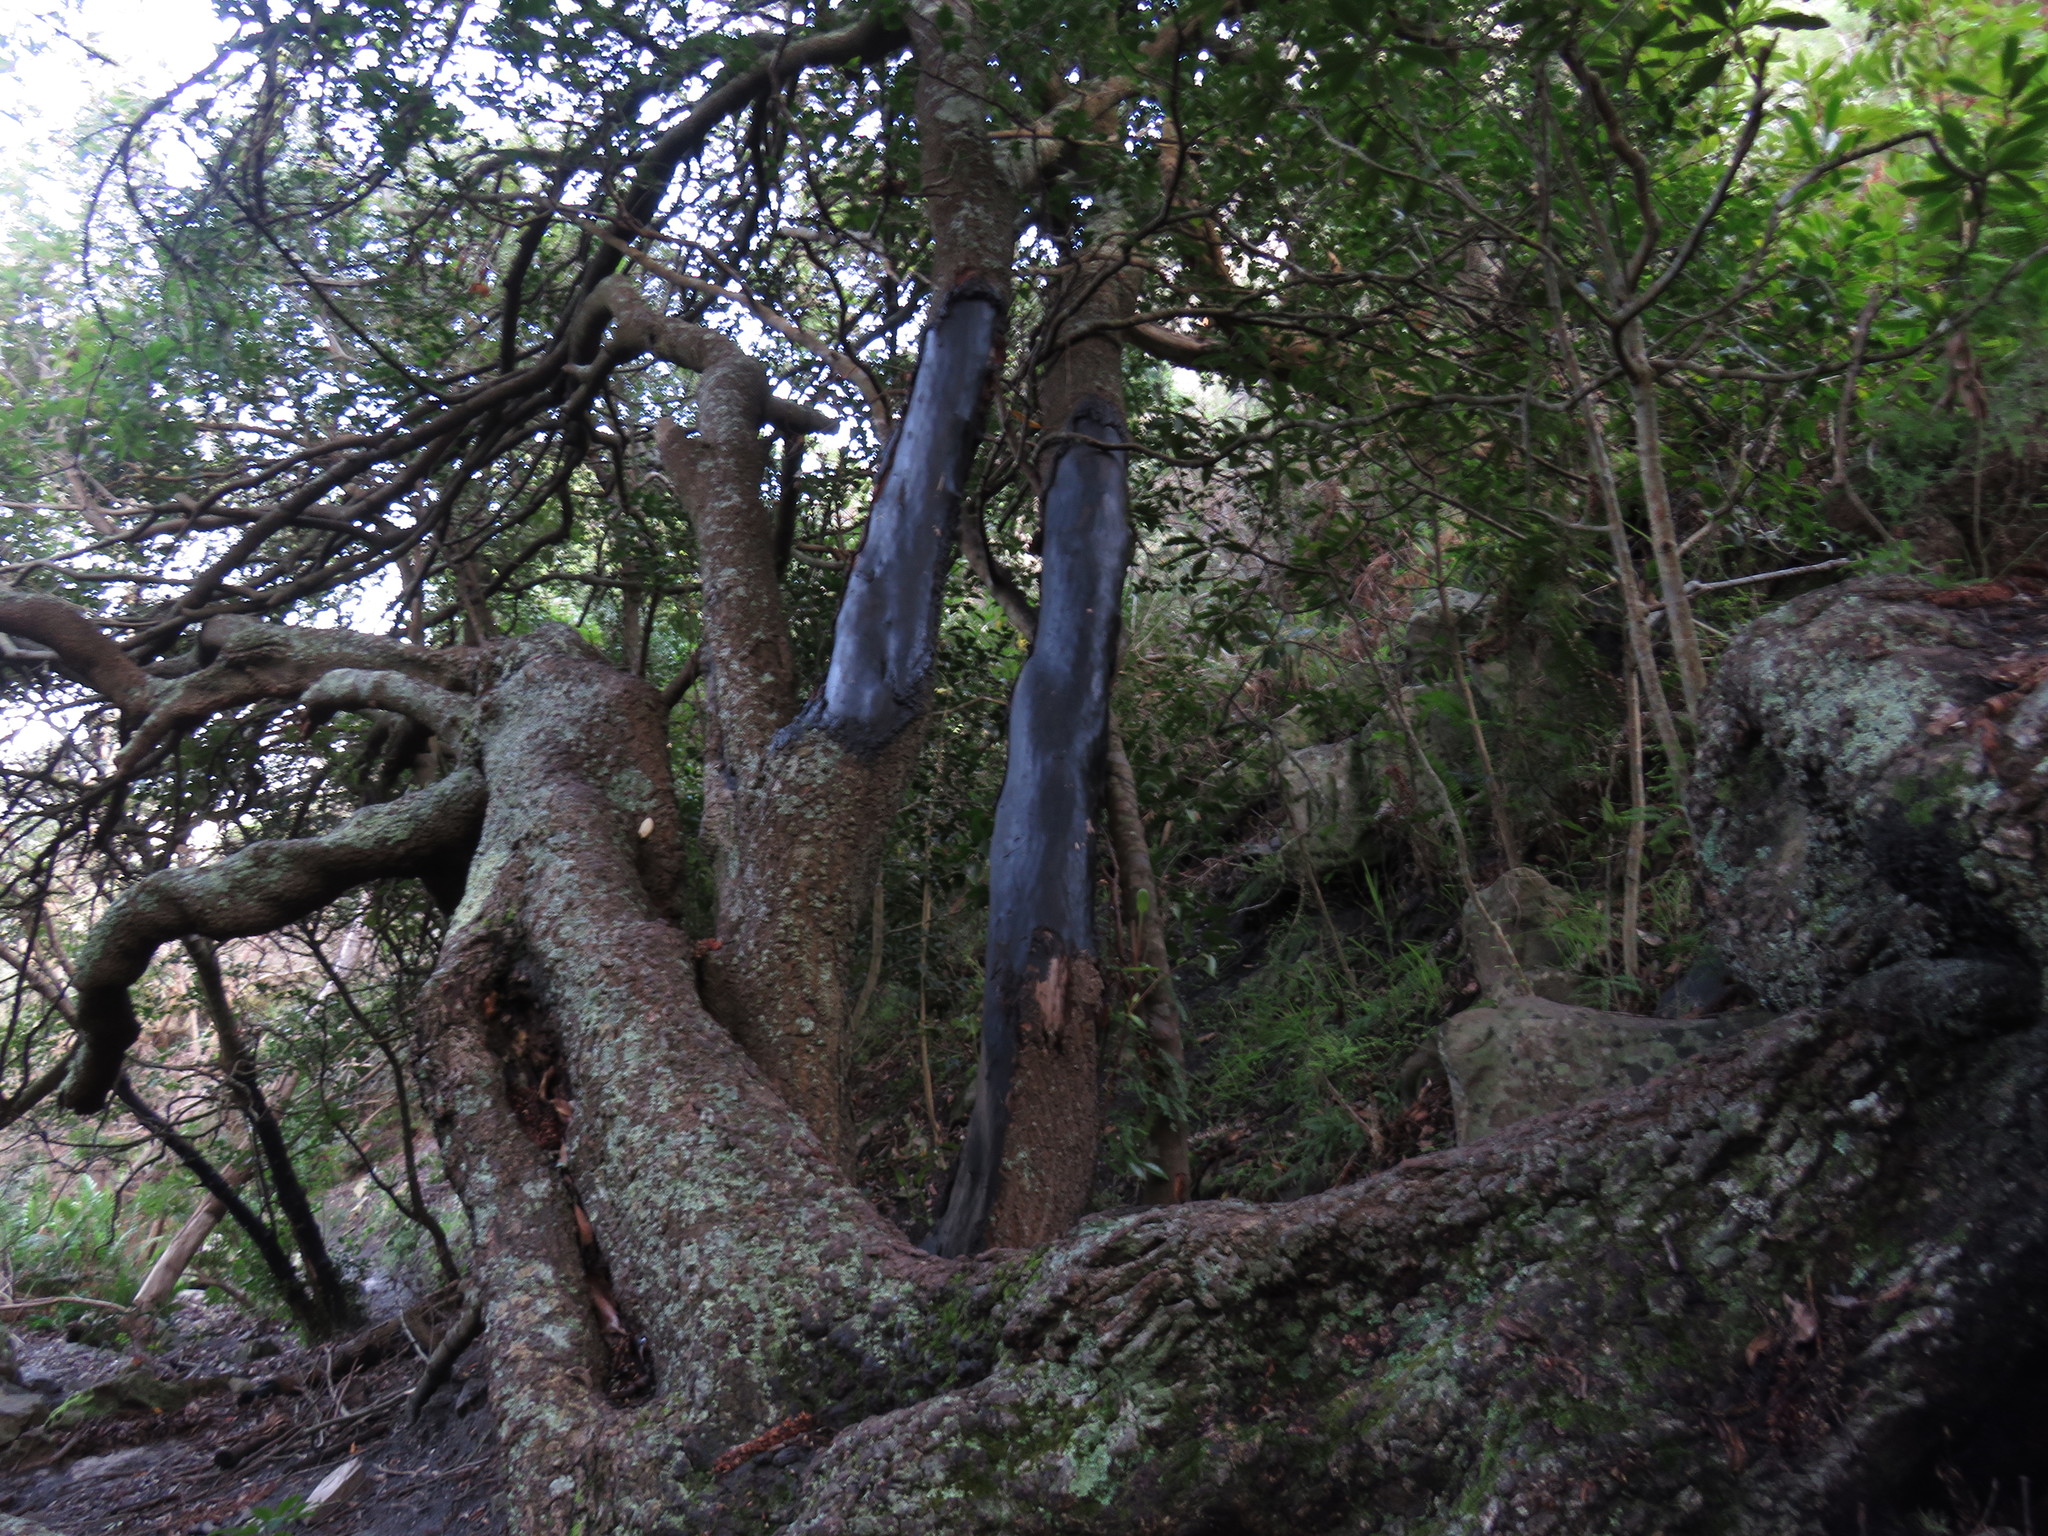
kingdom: Plantae
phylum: Tracheophyta
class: Magnoliopsida
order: Oxalidales
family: Cunoniaceae
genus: Cunonia
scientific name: Cunonia capensis
